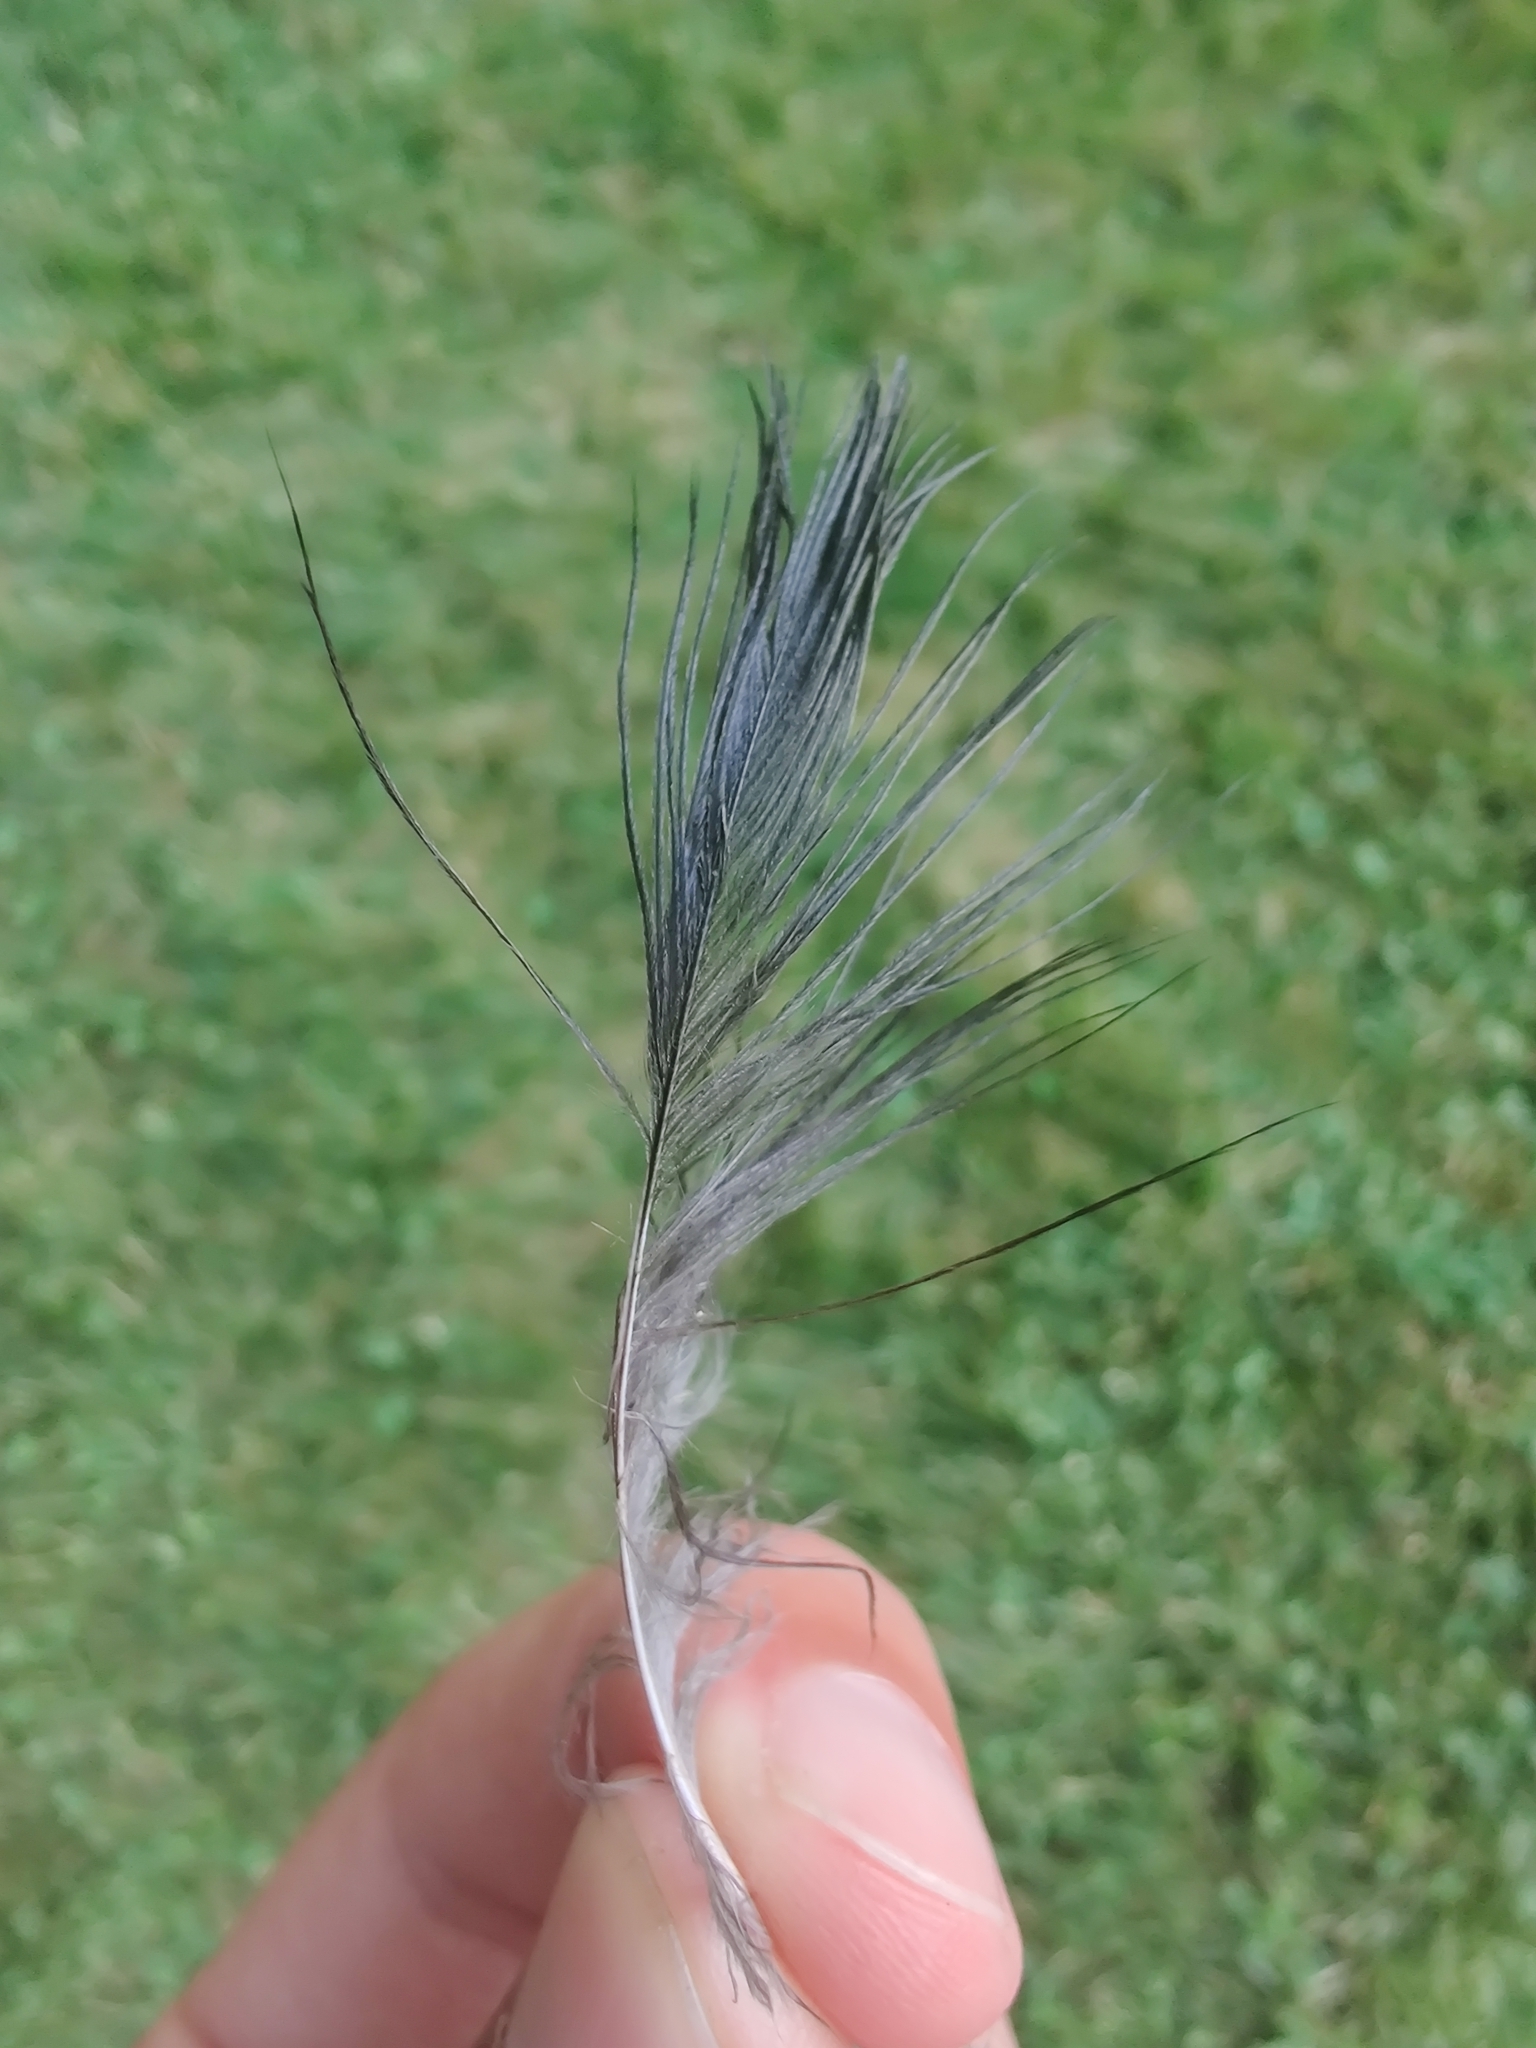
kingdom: Animalia
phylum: Chordata
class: Aves
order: Pelecaniformes
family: Ardeidae
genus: Ardea
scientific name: Ardea herodias
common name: Great blue heron
